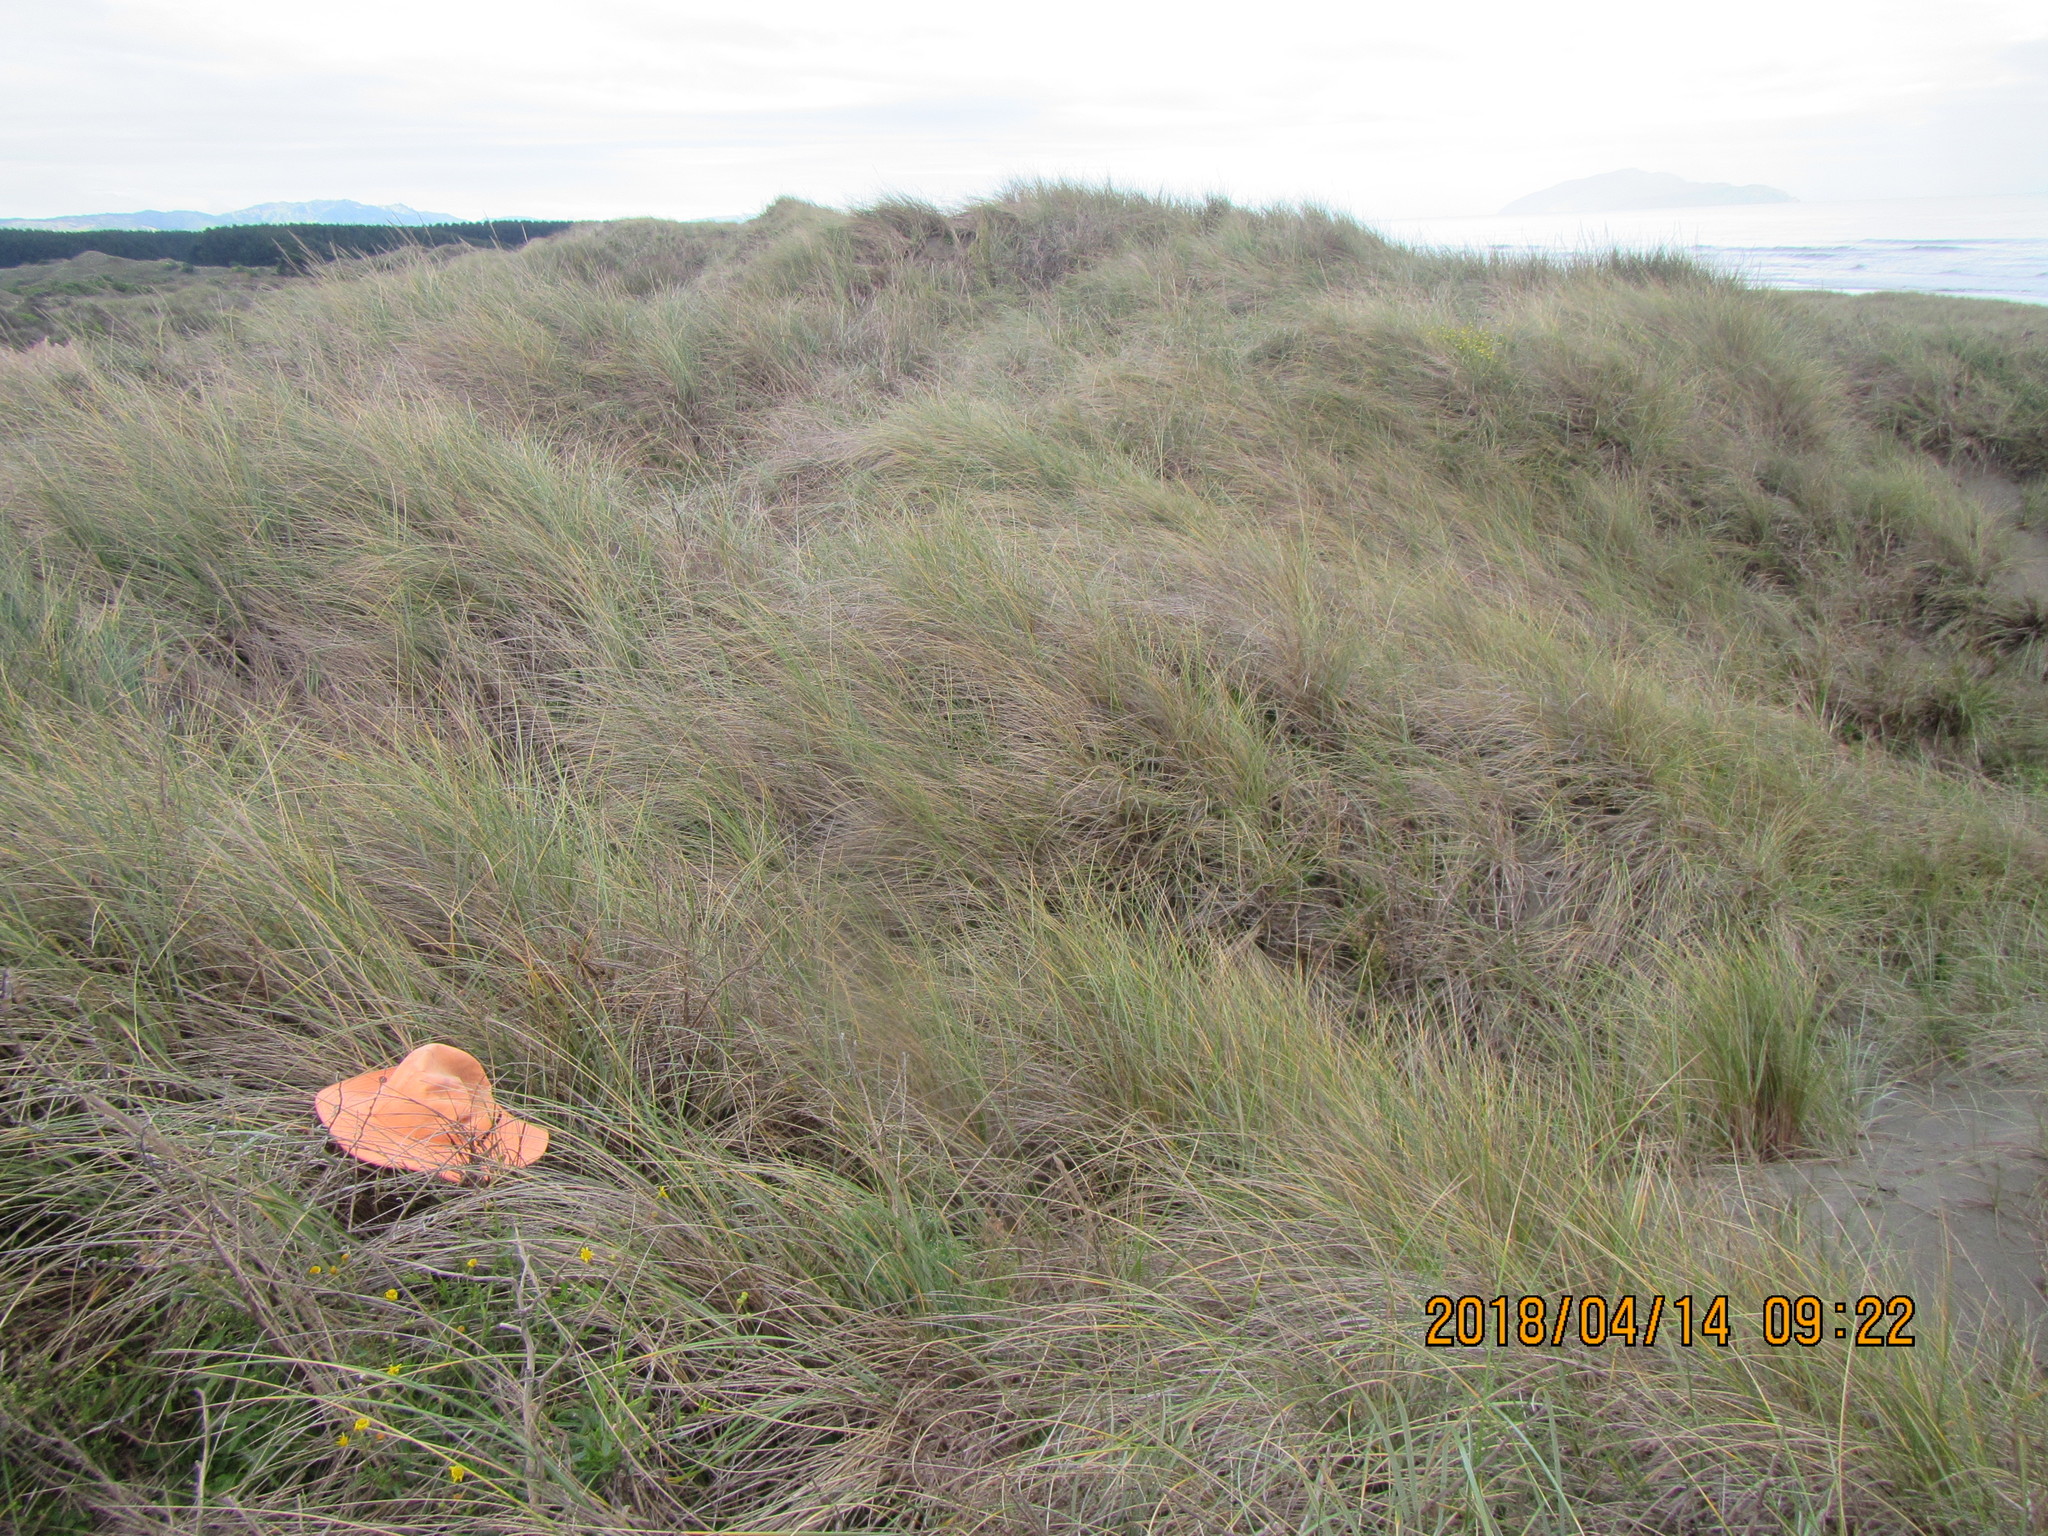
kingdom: Plantae
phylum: Tracheophyta
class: Magnoliopsida
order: Caryophyllales
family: Polygonaceae
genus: Muehlenbeckia
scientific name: Muehlenbeckia complexa
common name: Wireplant
